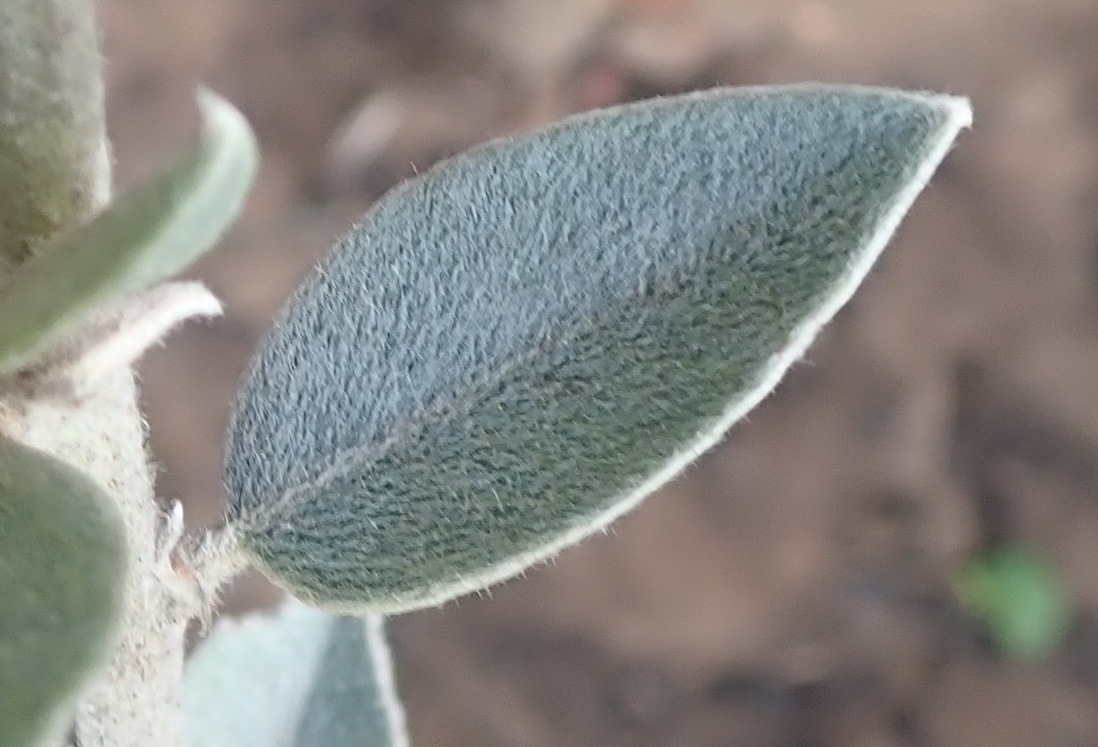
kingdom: Plantae
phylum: Tracheophyta
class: Magnoliopsida
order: Fabales
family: Fabaceae
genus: Podalyria
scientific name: Podalyria burchellii
